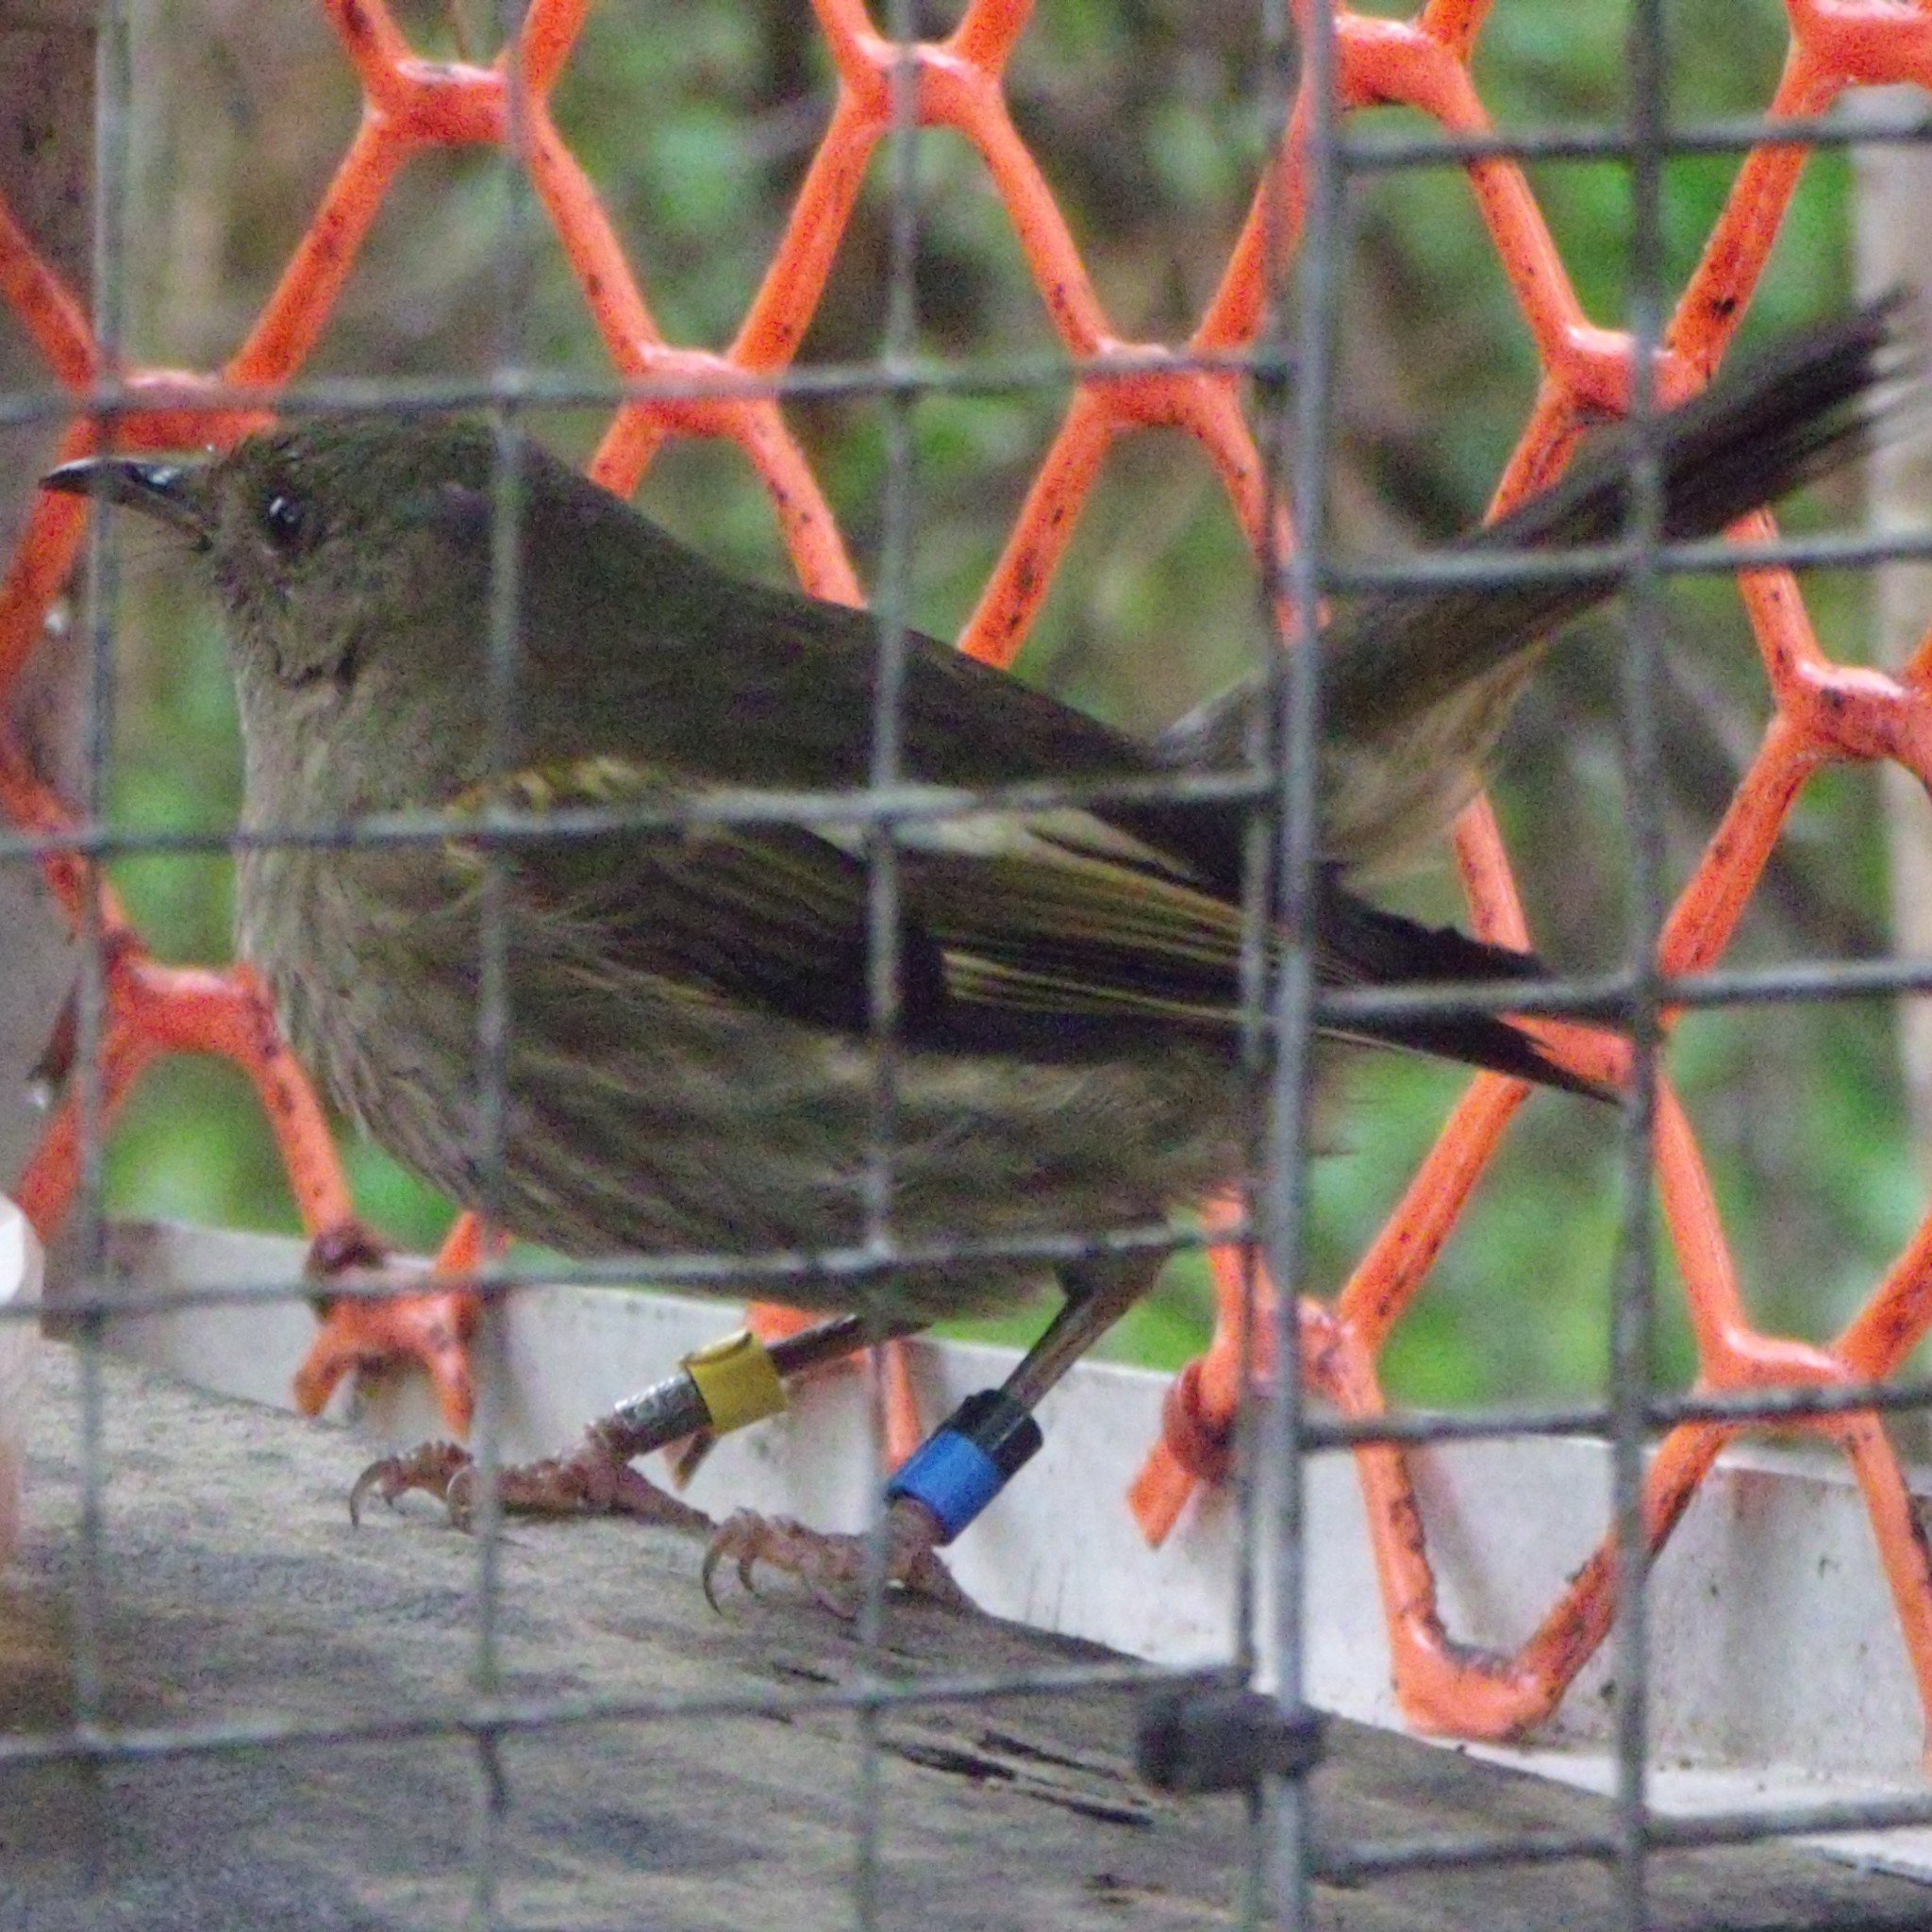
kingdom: Animalia
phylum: Chordata
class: Aves
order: Passeriformes
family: Notiomystidae
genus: Notiomystis
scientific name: Notiomystis cincta
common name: Stitchbird
